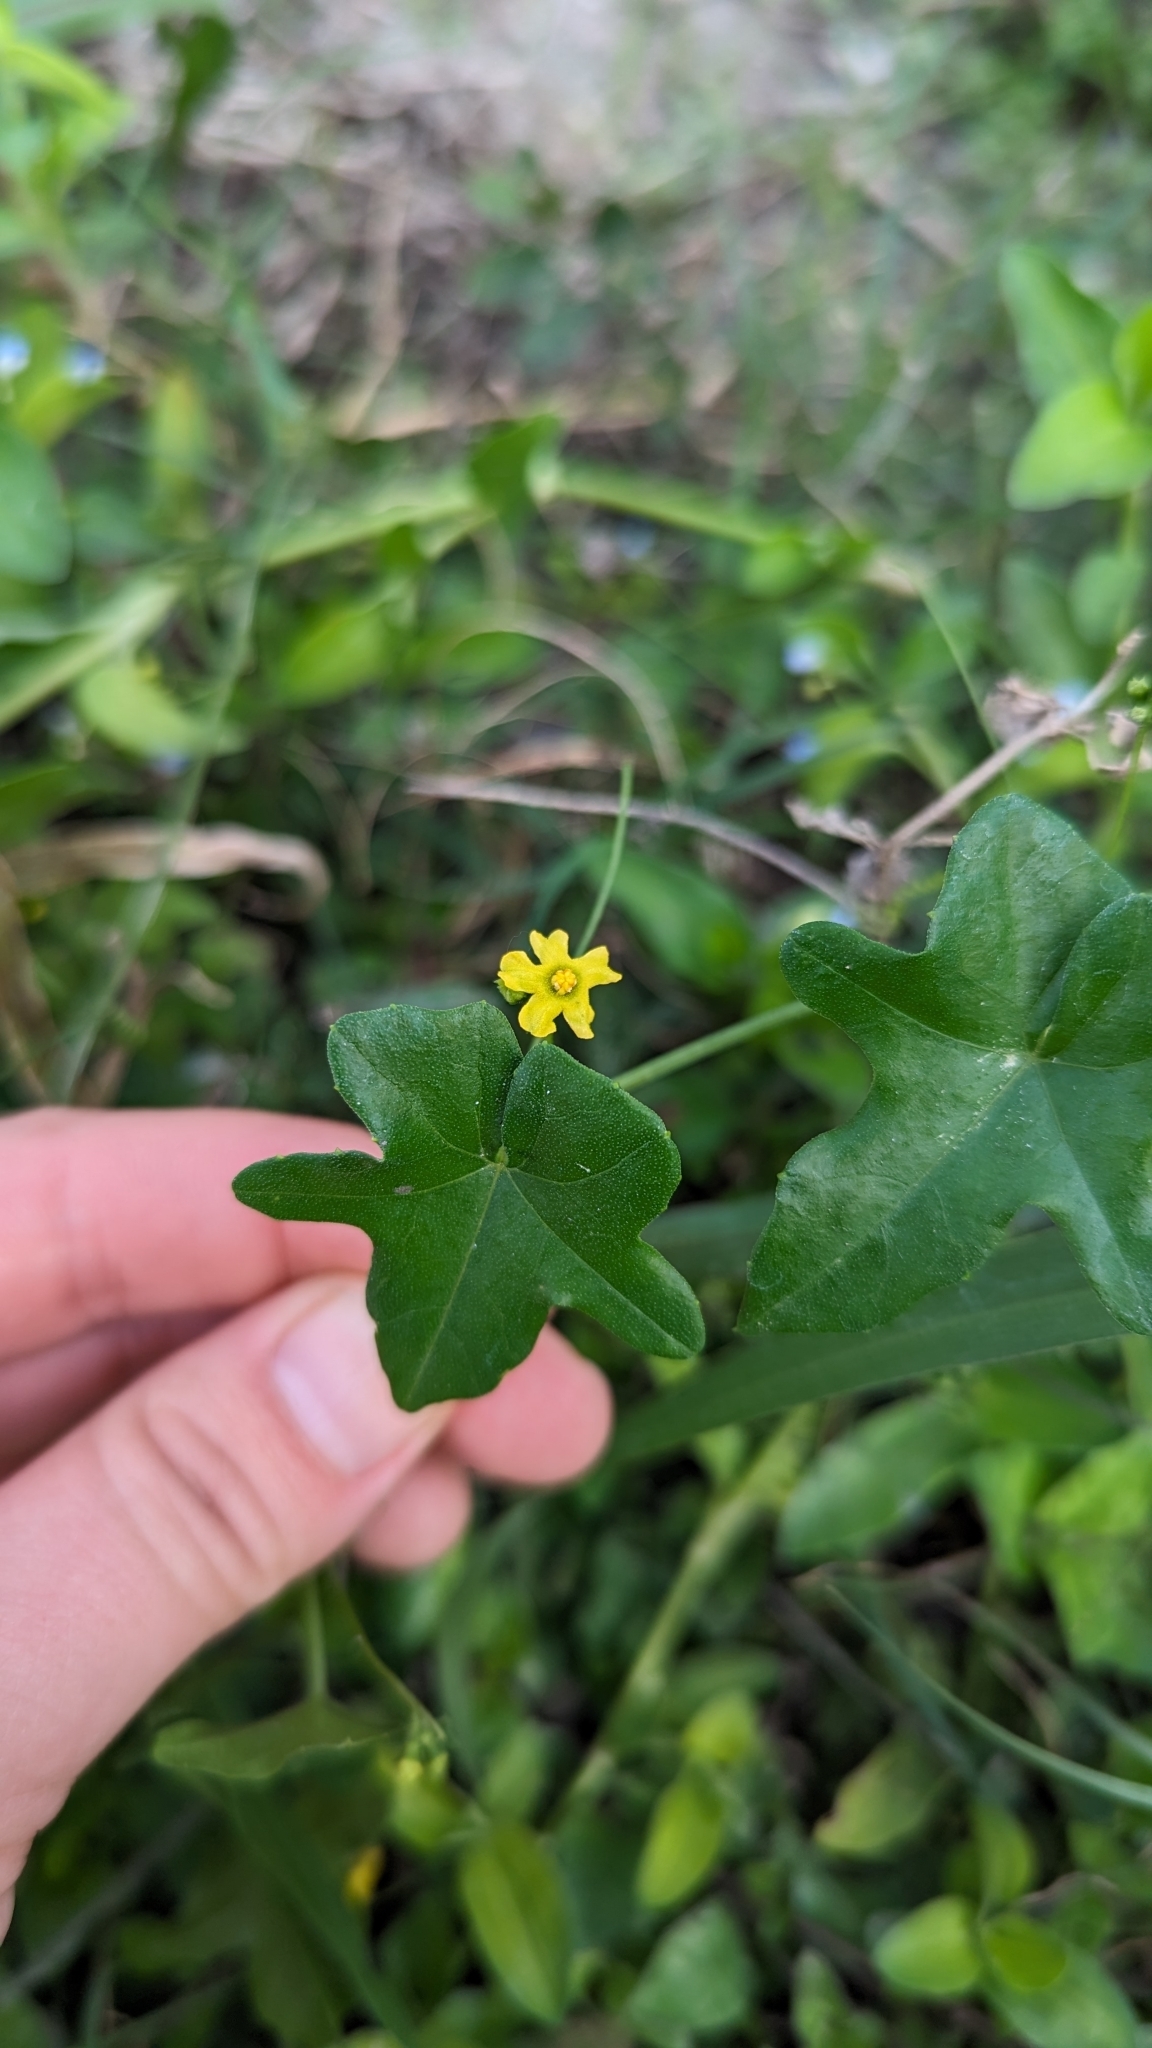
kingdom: Plantae
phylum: Tracheophyta
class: Magnoliopsida
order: Cucurbitales
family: Cucurbitaceae
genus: Melothria
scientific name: Melothria pendula
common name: Creeping-cucumber
